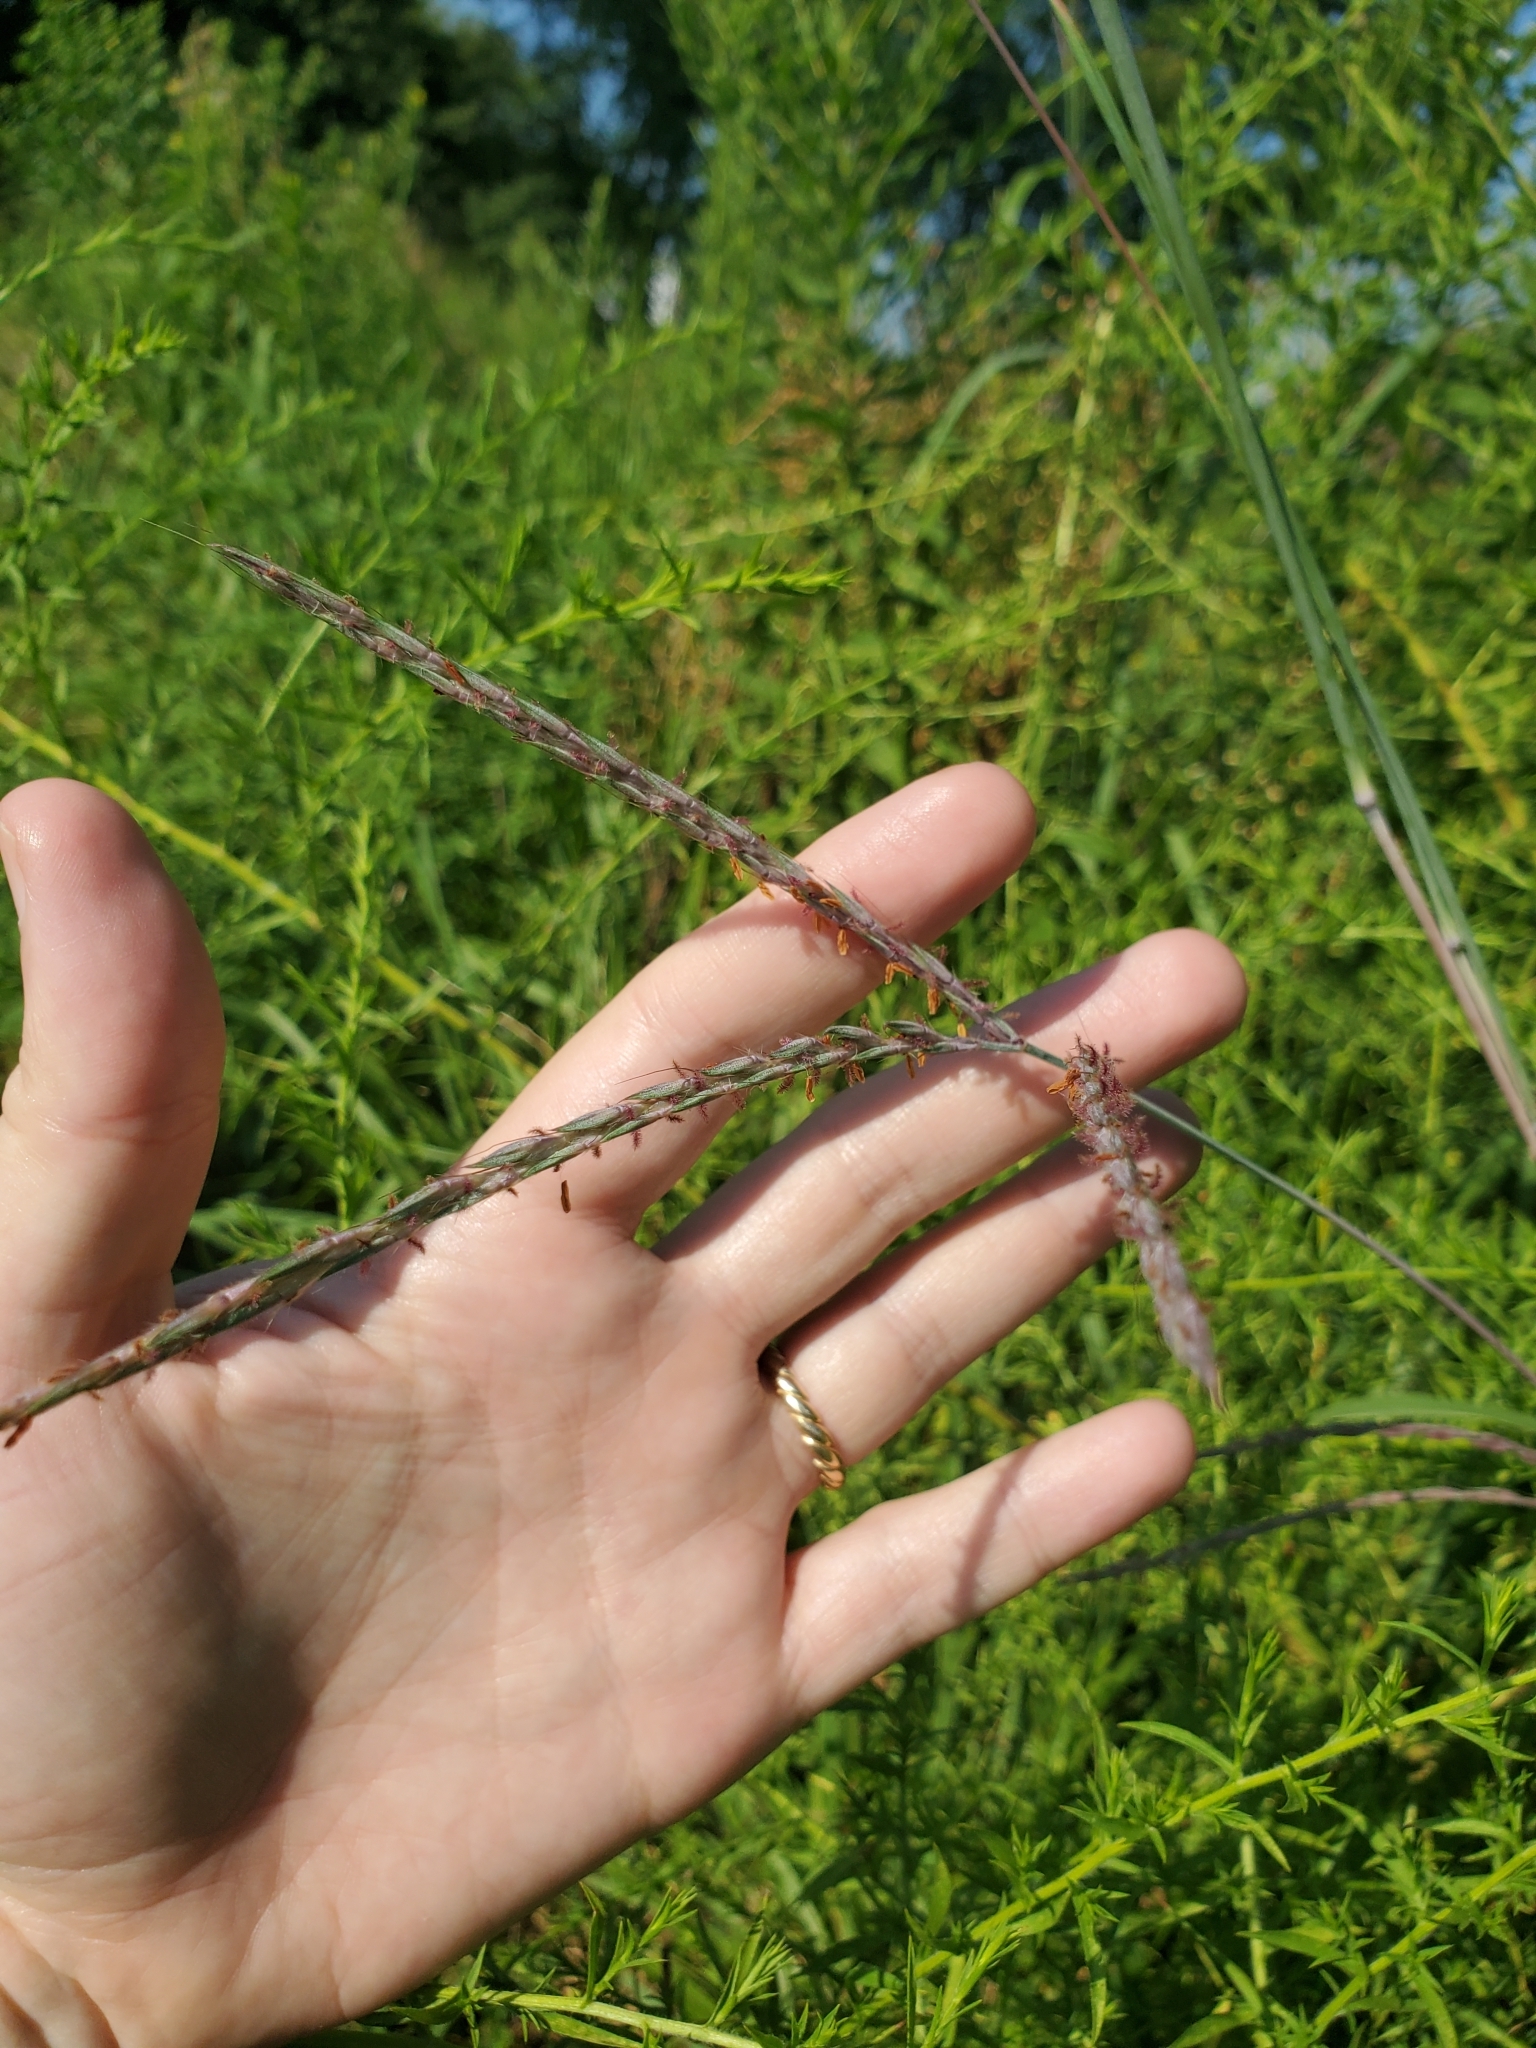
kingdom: Plantae
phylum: Tracheophyta
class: Liliopsida
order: Poales
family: Poaceae
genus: Andropogon
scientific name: Andropogon gerardi
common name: Big bluestem
